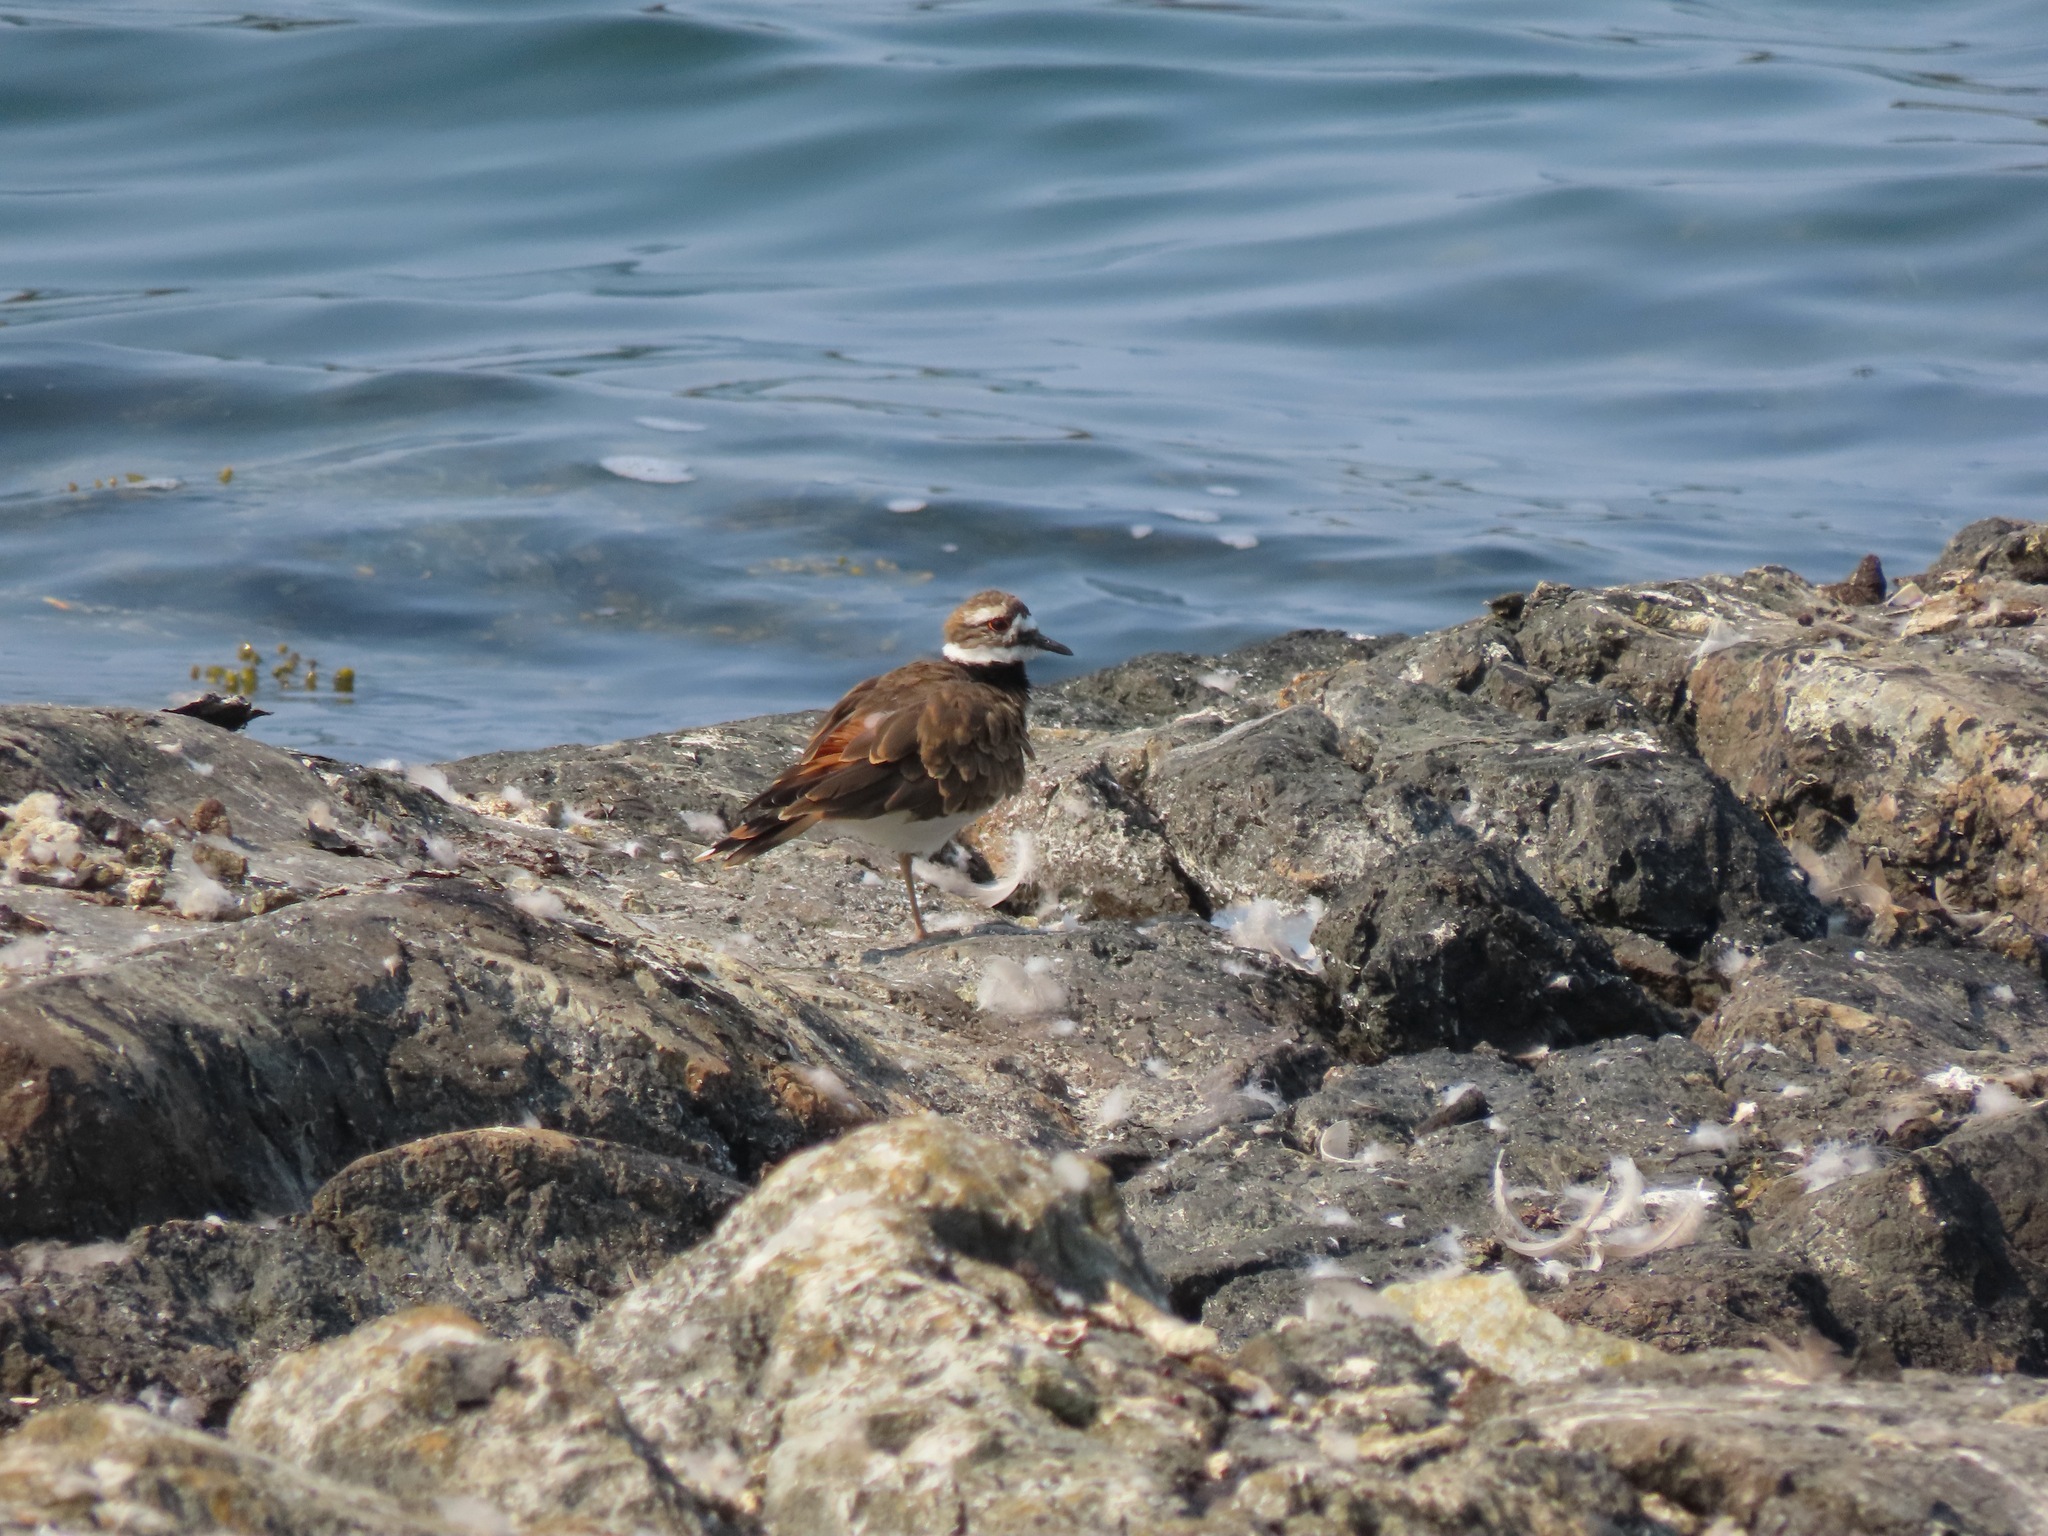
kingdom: Animalia
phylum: Chordata
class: Aves
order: Charadriiformes
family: Charadriidae
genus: Charadrius
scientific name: Charadrius vociferus
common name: Killdeer
